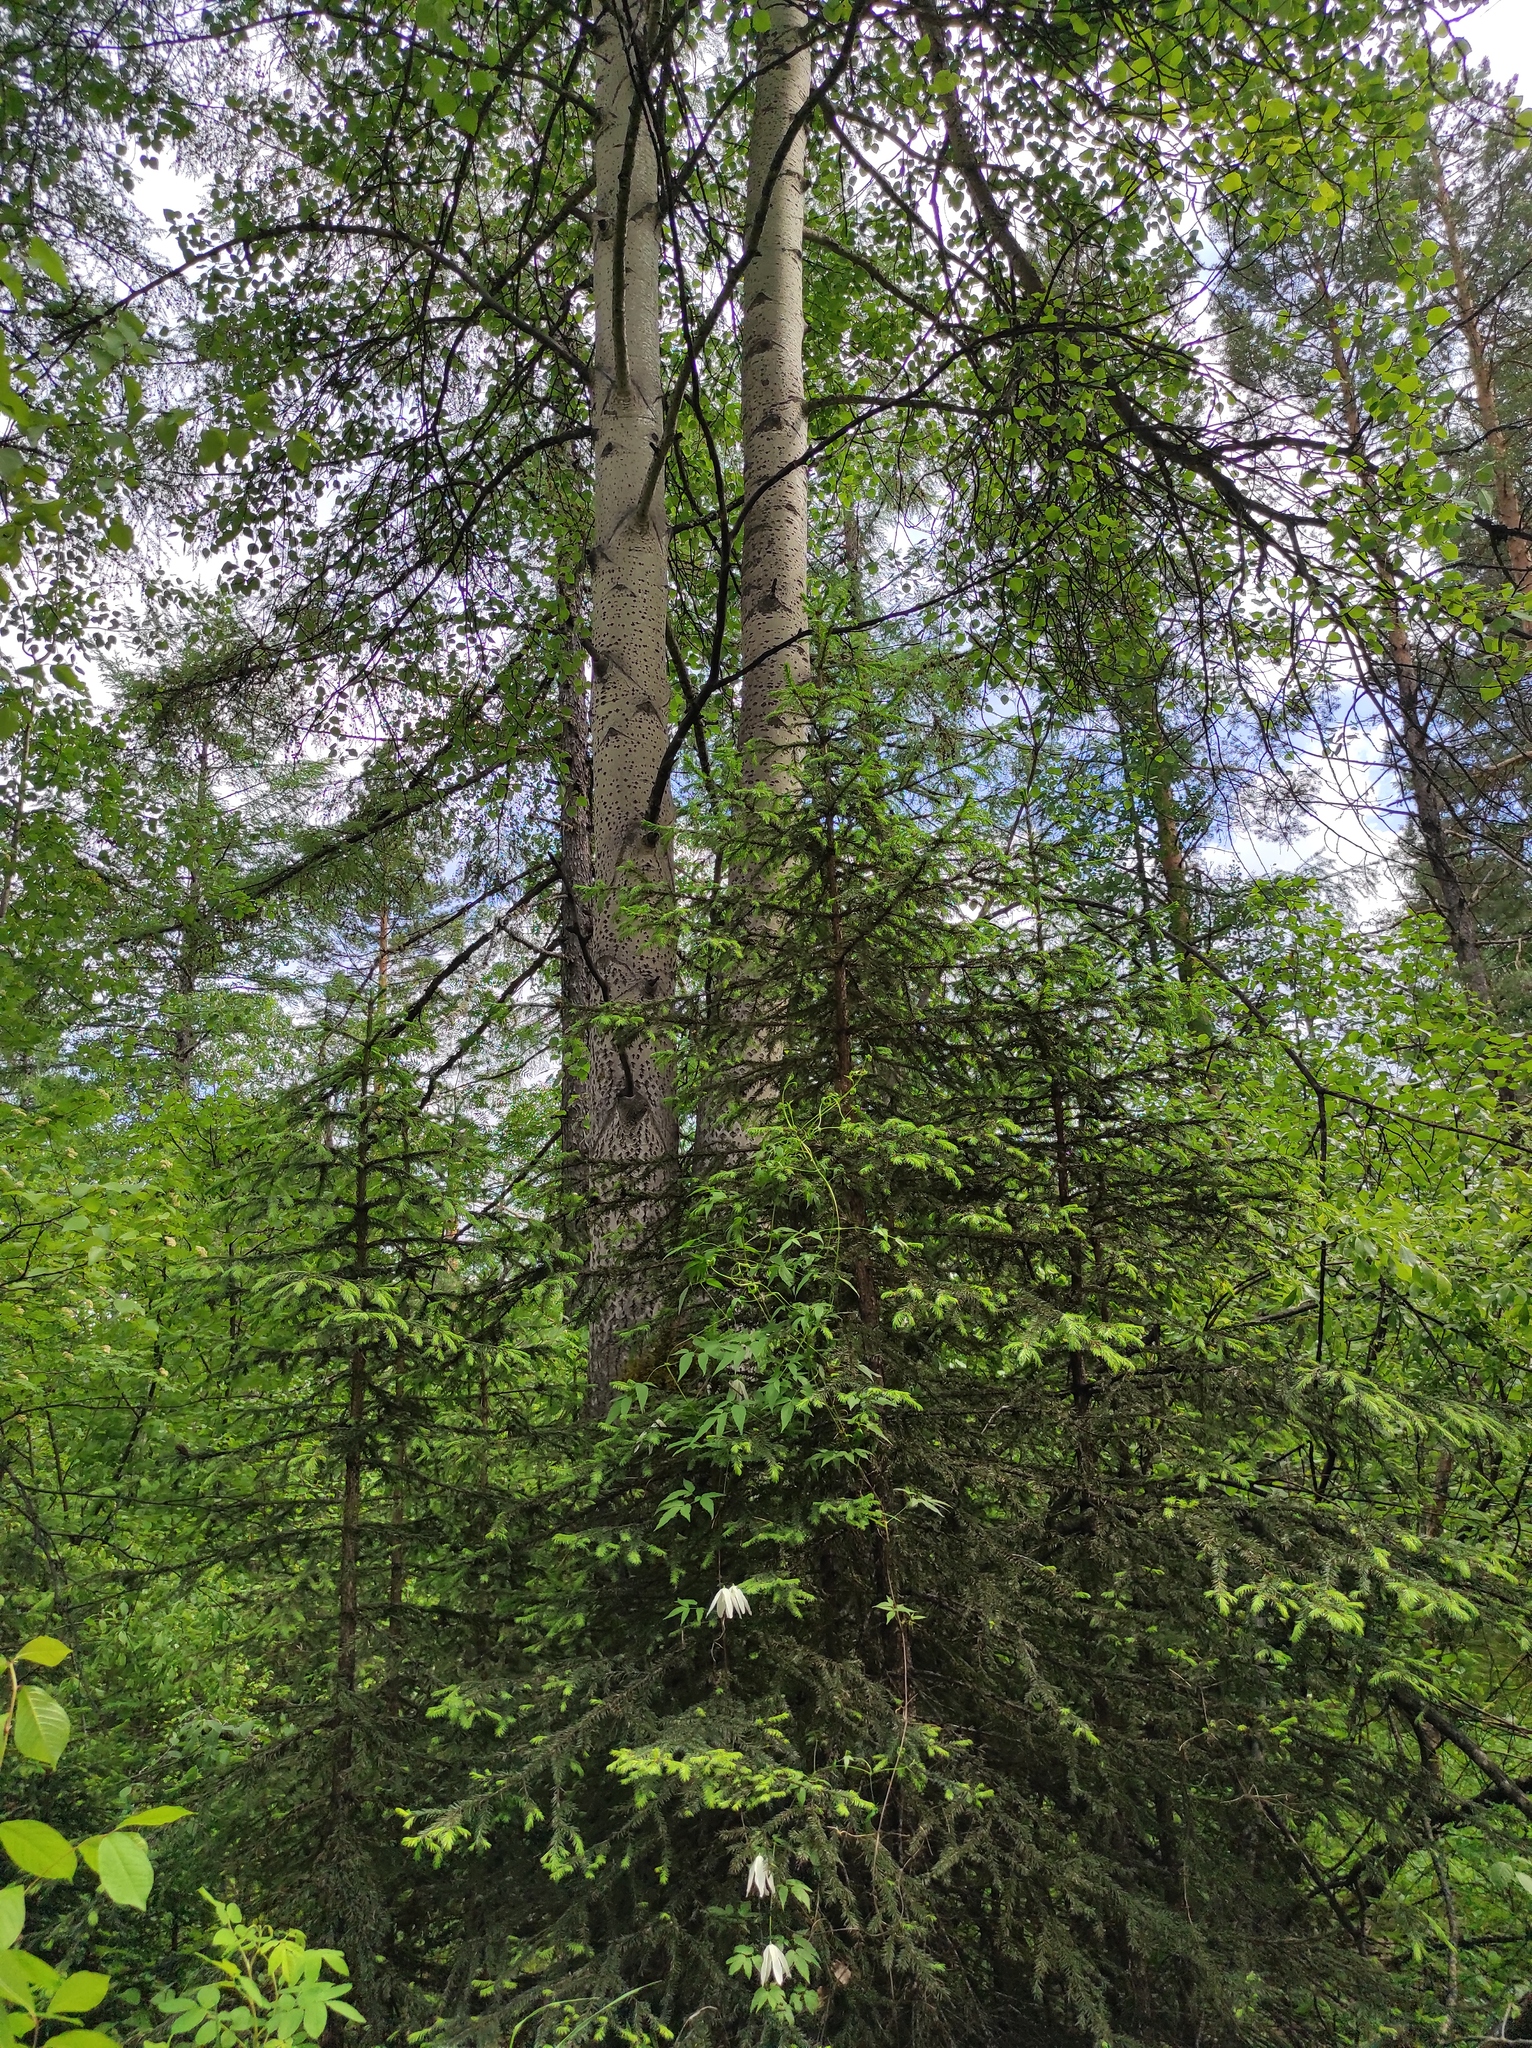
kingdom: Plantae
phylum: Tracheophyta
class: Pinopsida
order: Pinales
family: Pinaceae
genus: Abies
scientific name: Abies sibirica
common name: Siberian fir
